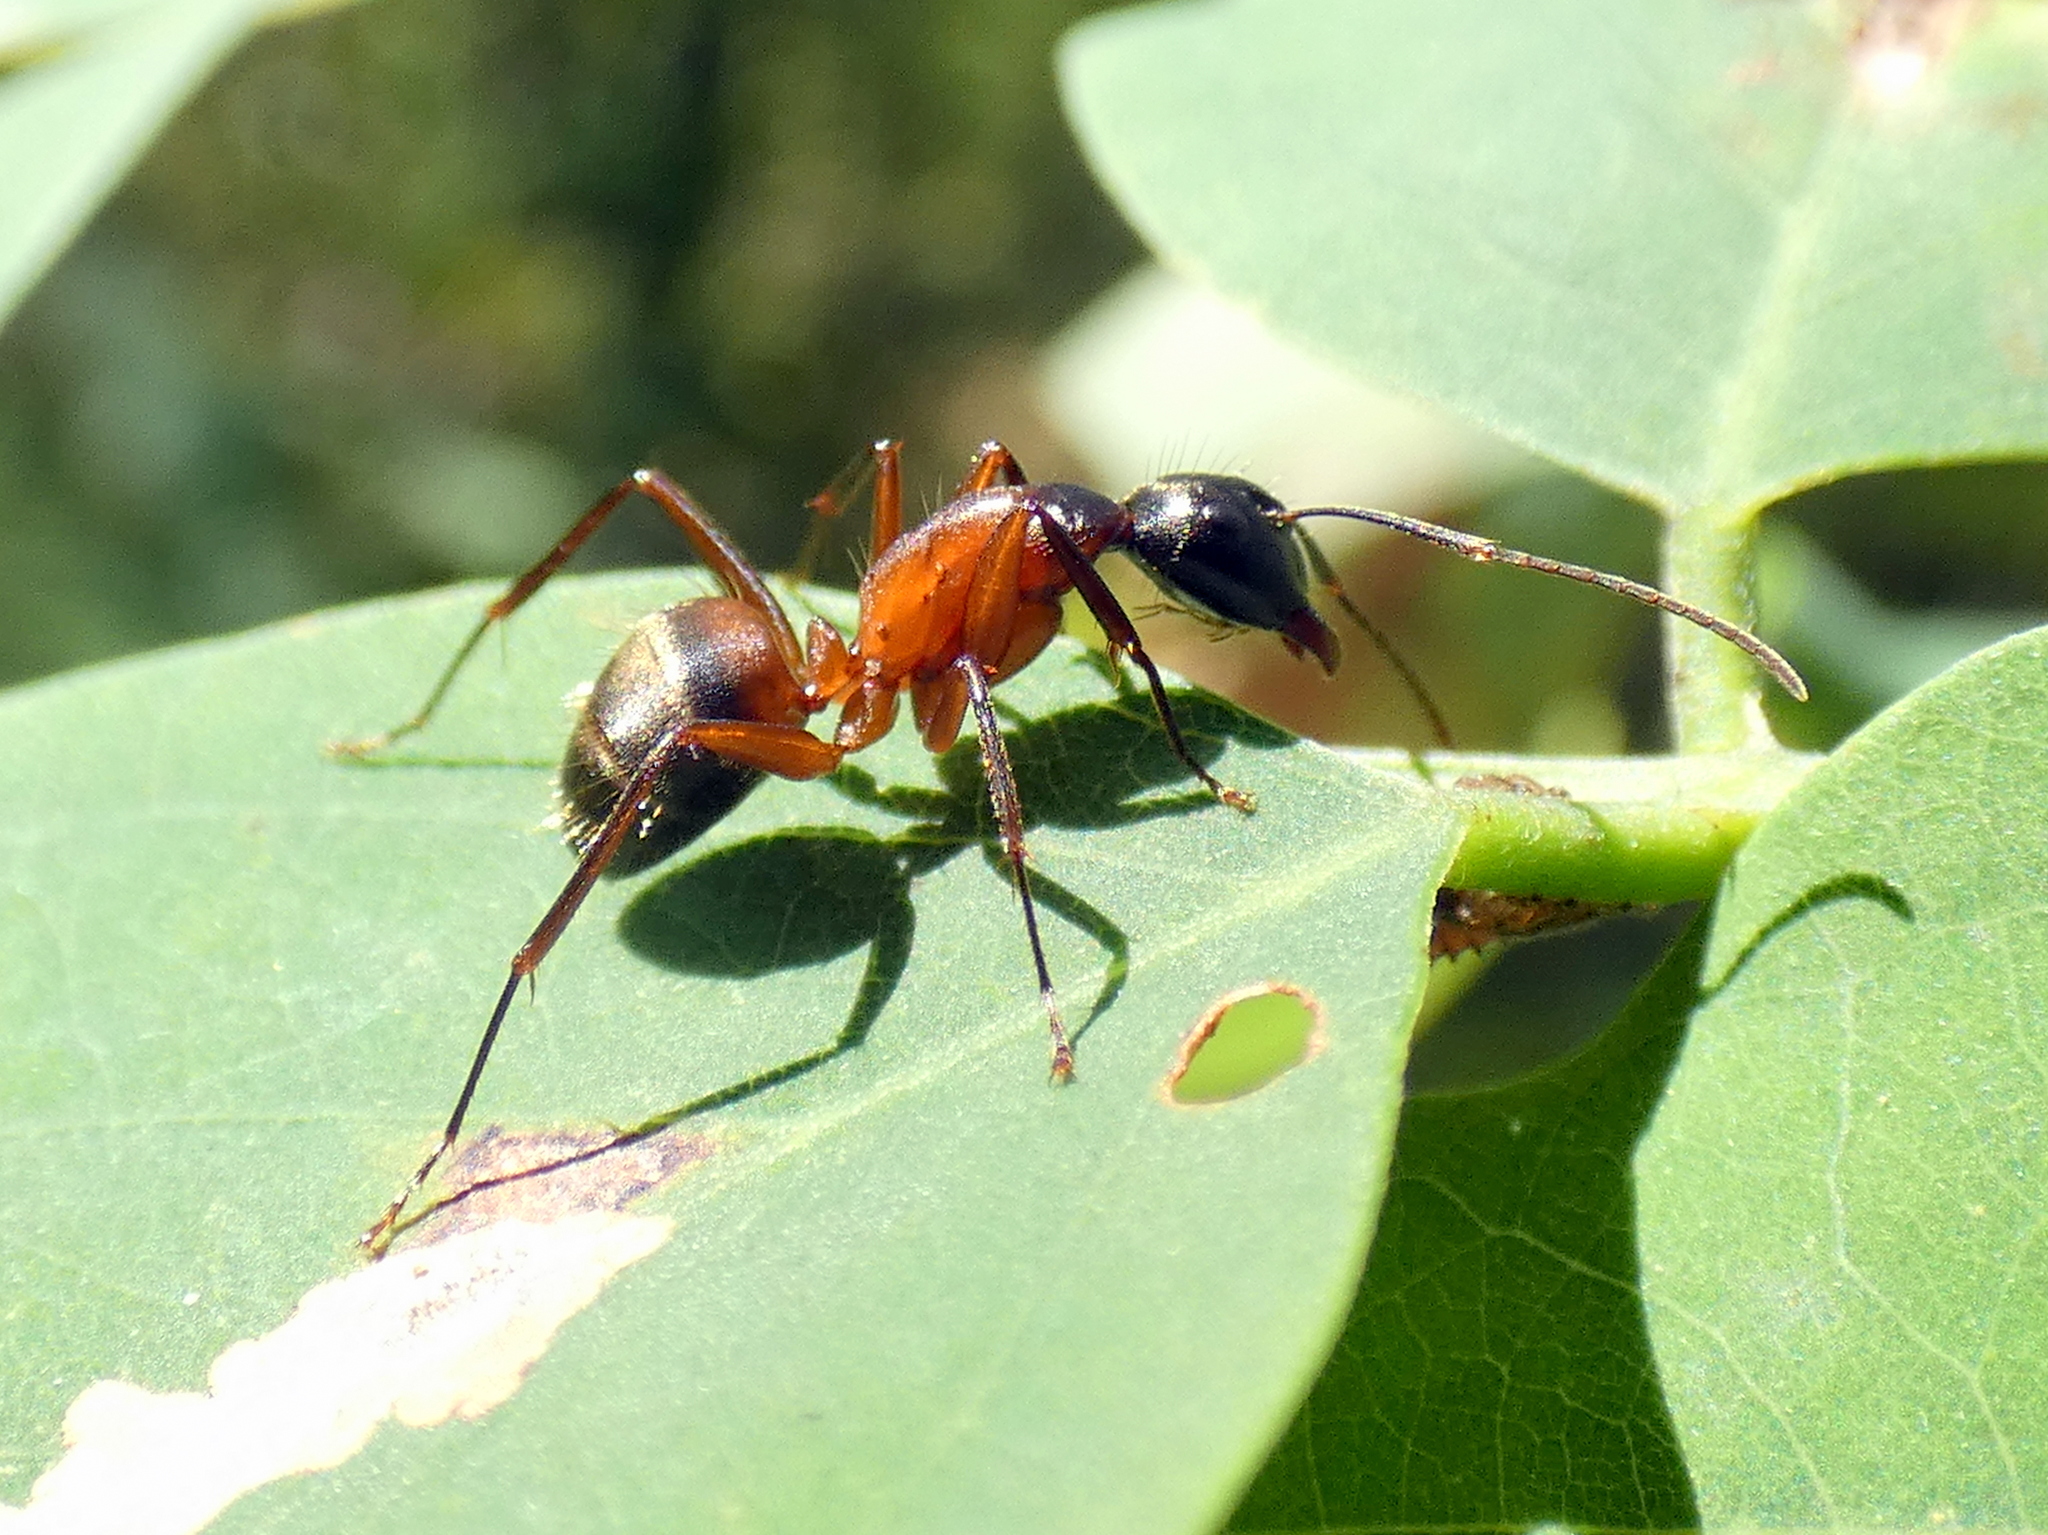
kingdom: Animalia
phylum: Arthropoda
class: Insecta
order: Hymenoptera
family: Formicidae
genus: Camponotus
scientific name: Camponotus chromaiodes
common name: Red carpenter ant
